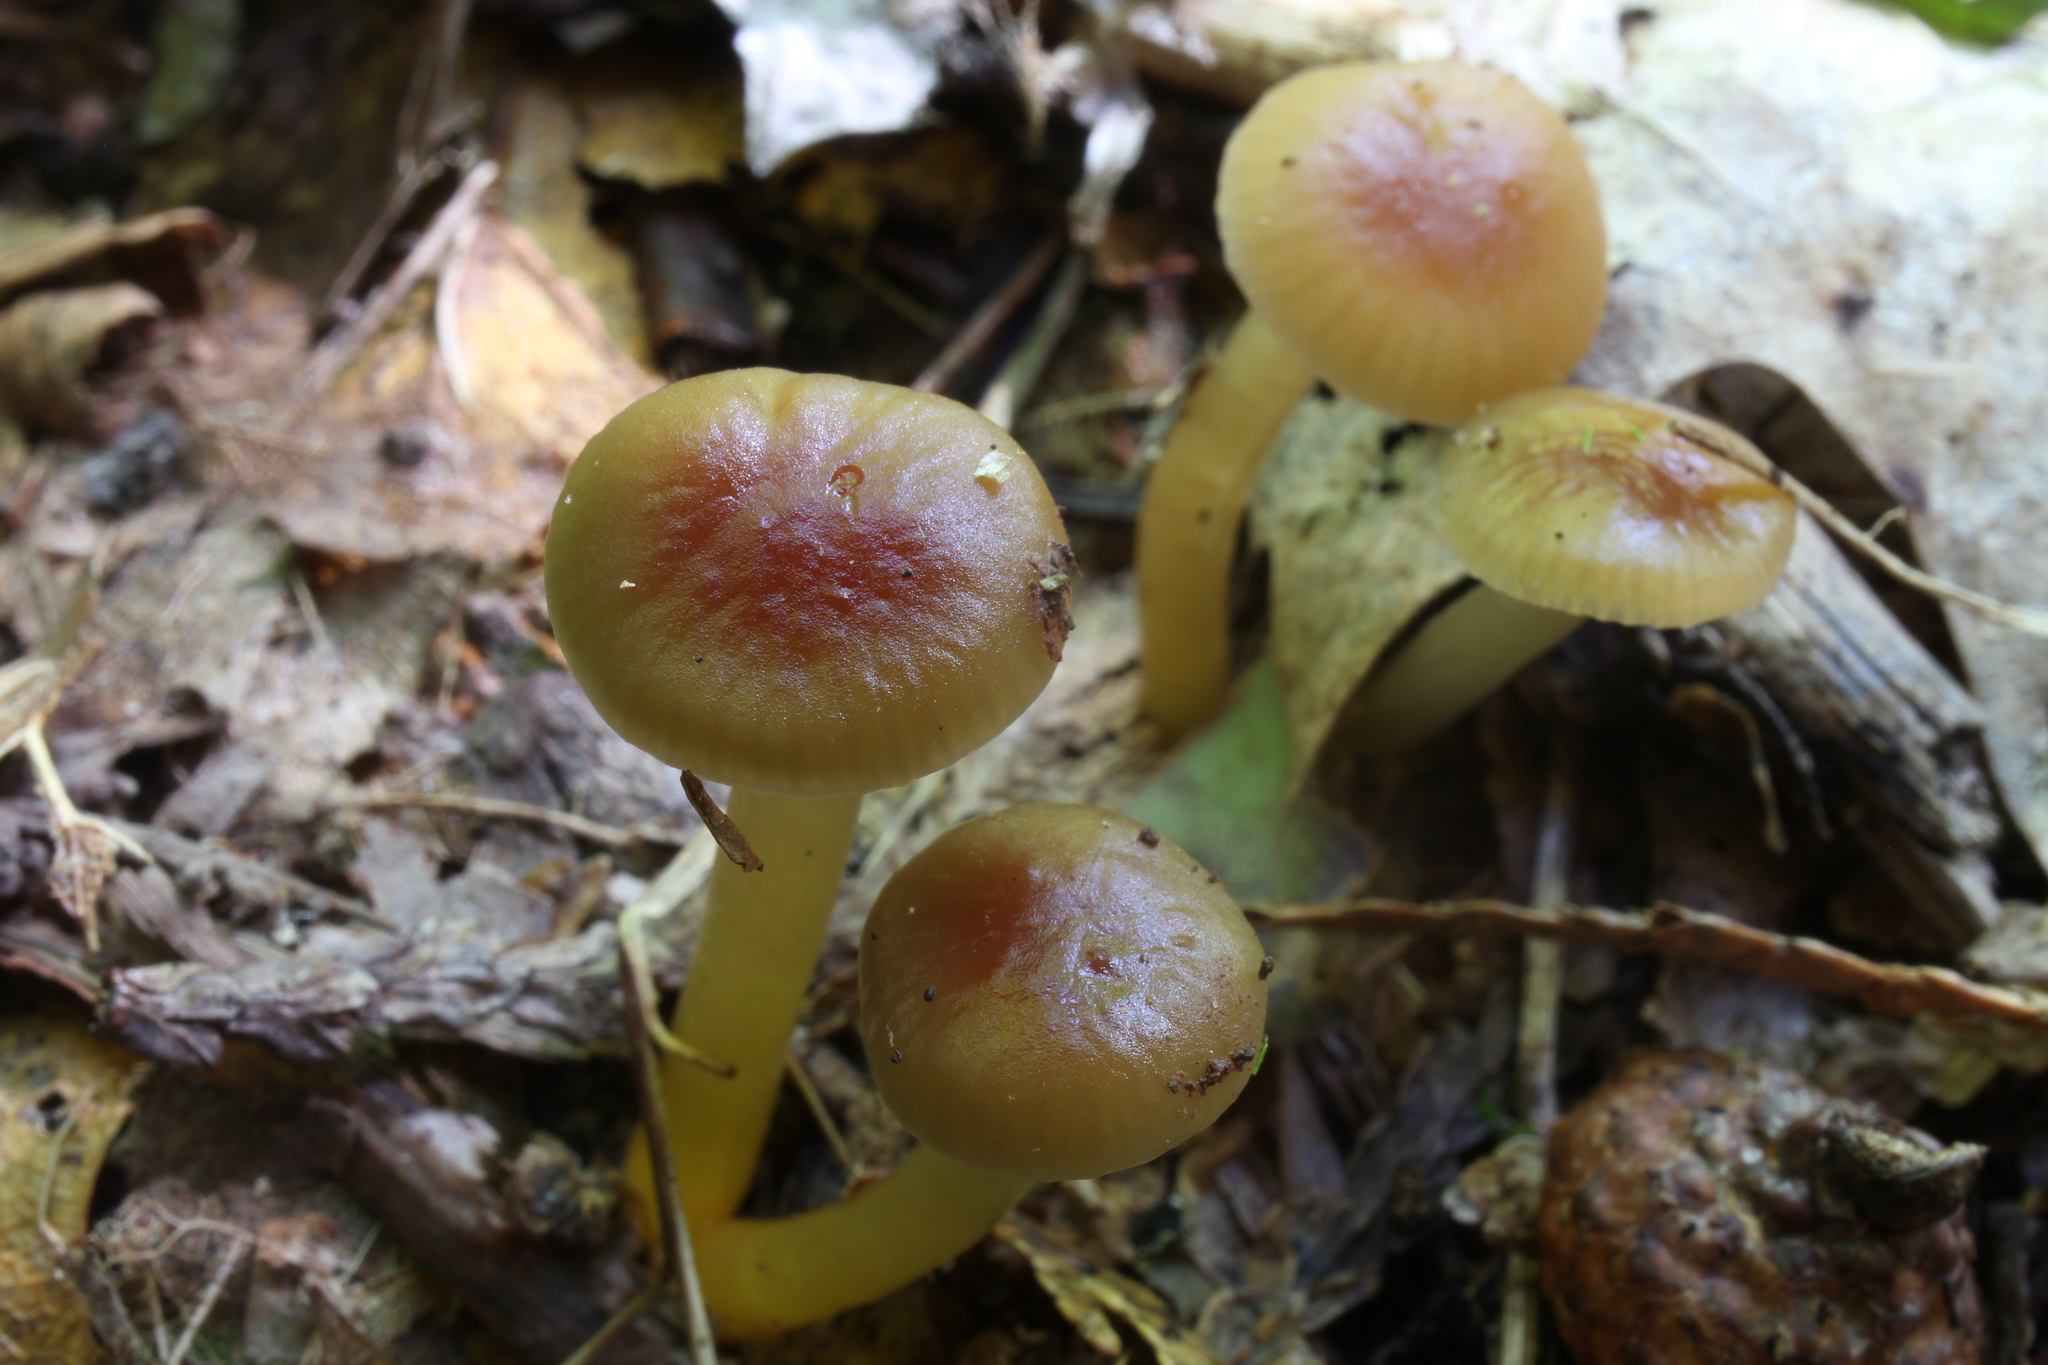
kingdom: Fungi
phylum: Basidiomycota
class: Agaricomycetes
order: Agaricales
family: Hygrophoraceae
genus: Gliophorus
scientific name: Gliophorus laetus
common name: Heath waxcap
